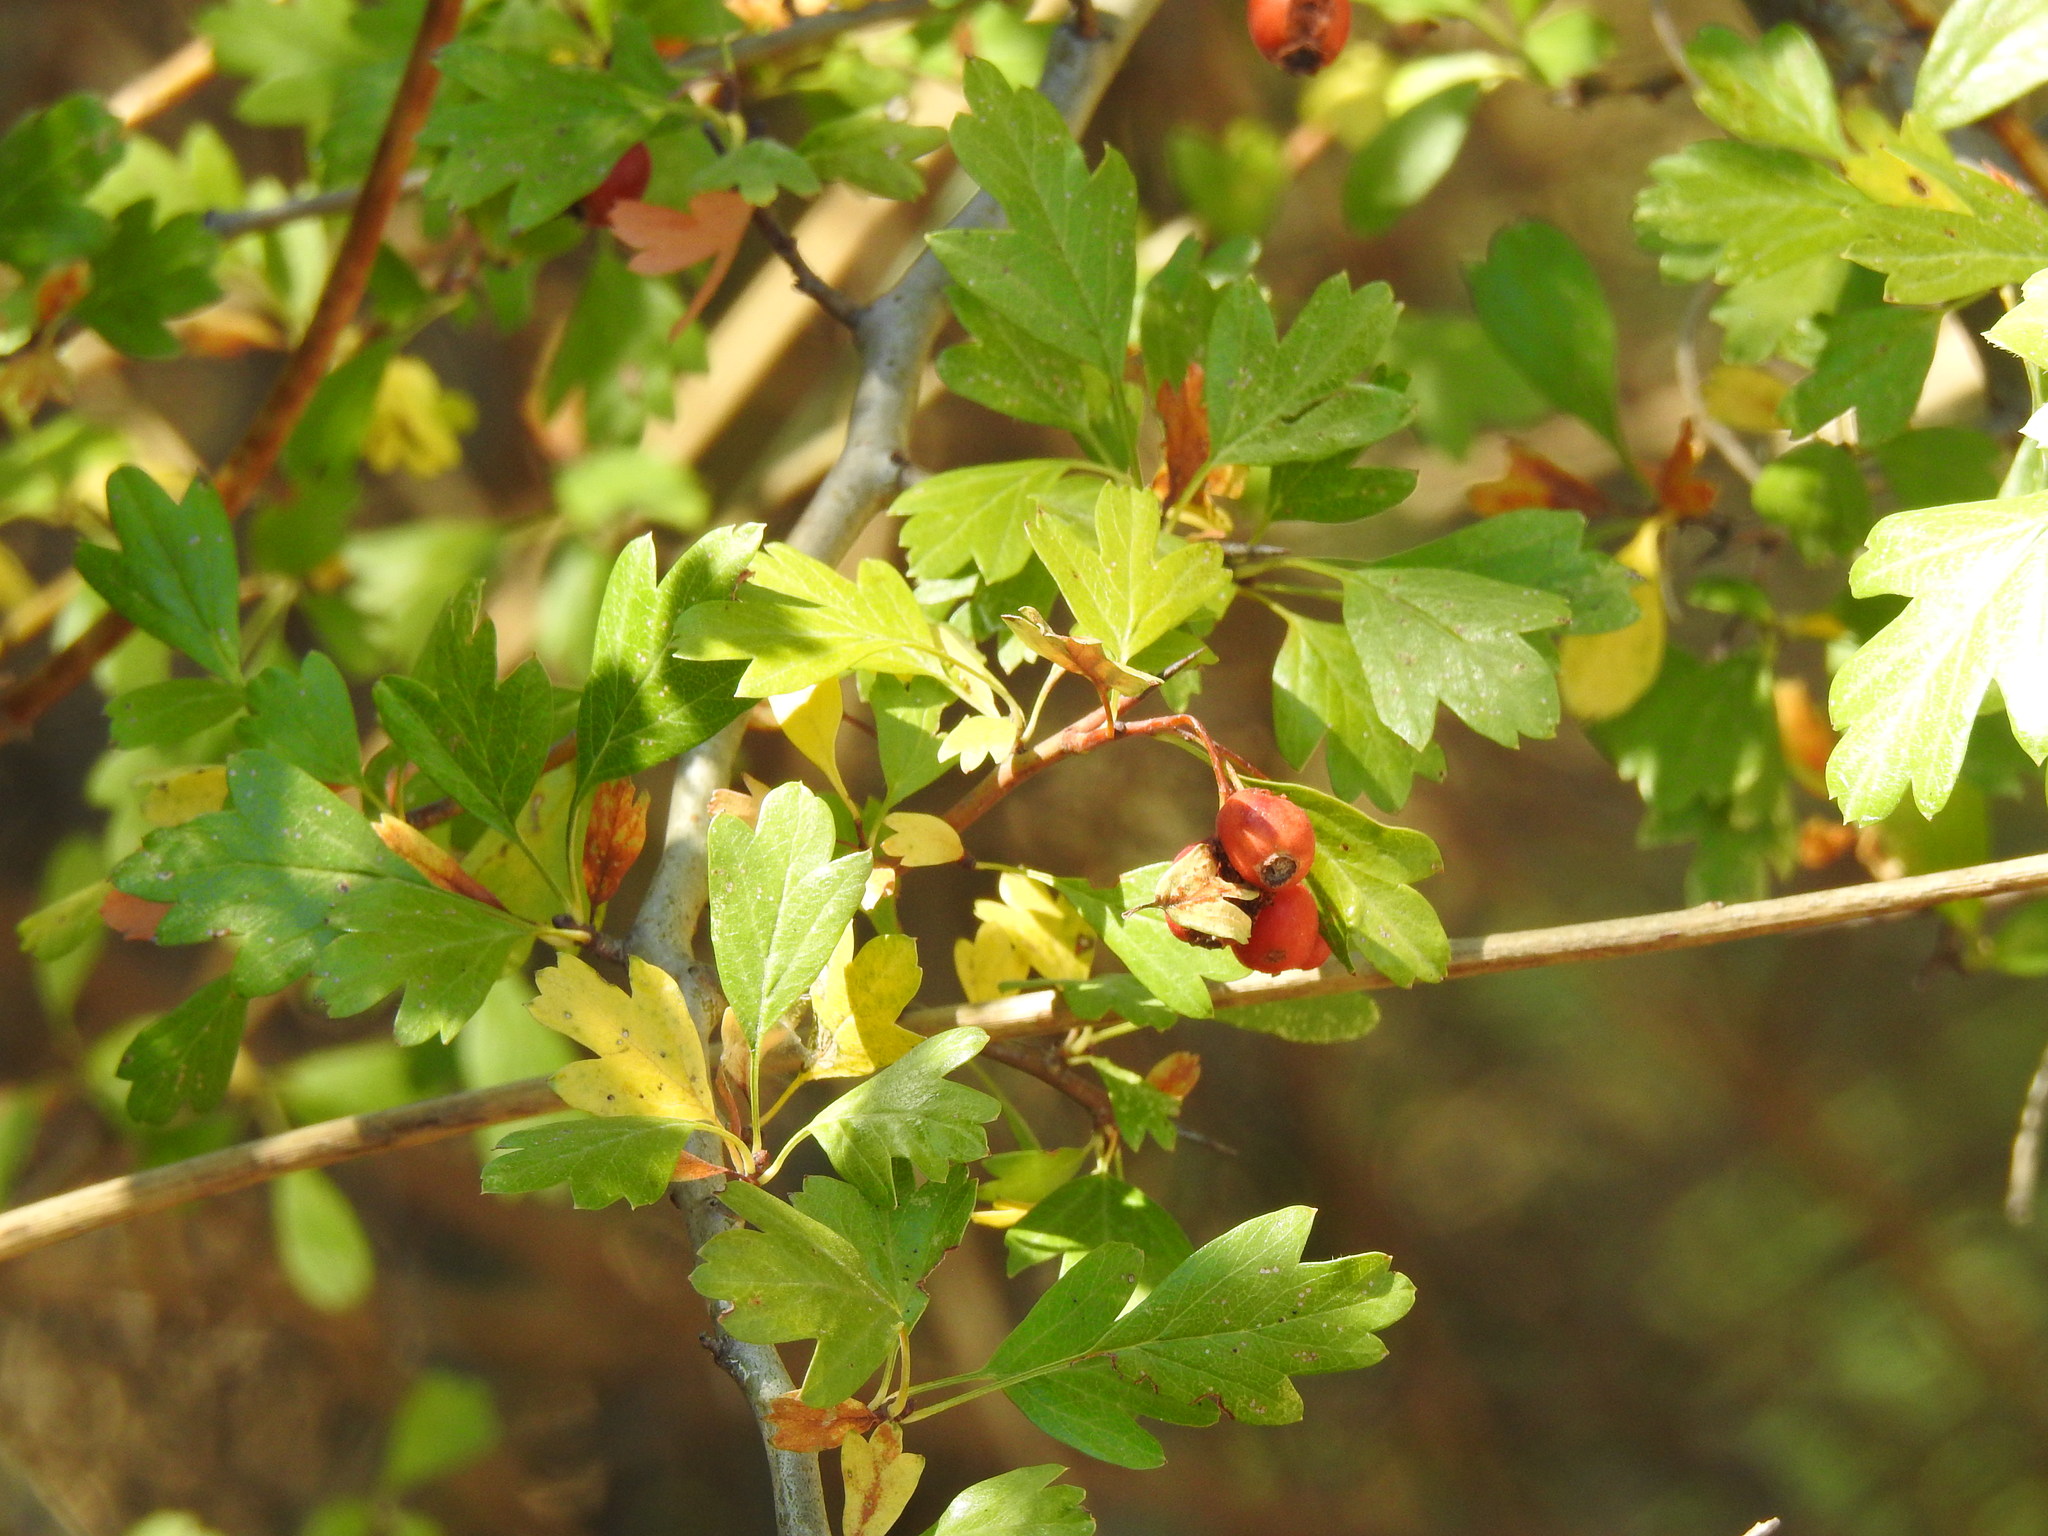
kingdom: Plantae
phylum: Tracheophyta
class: Magnoliopsida
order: Rosales
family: Rosaceae
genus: Crataegus
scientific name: Crataegus monogyna
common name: Hawthorn
